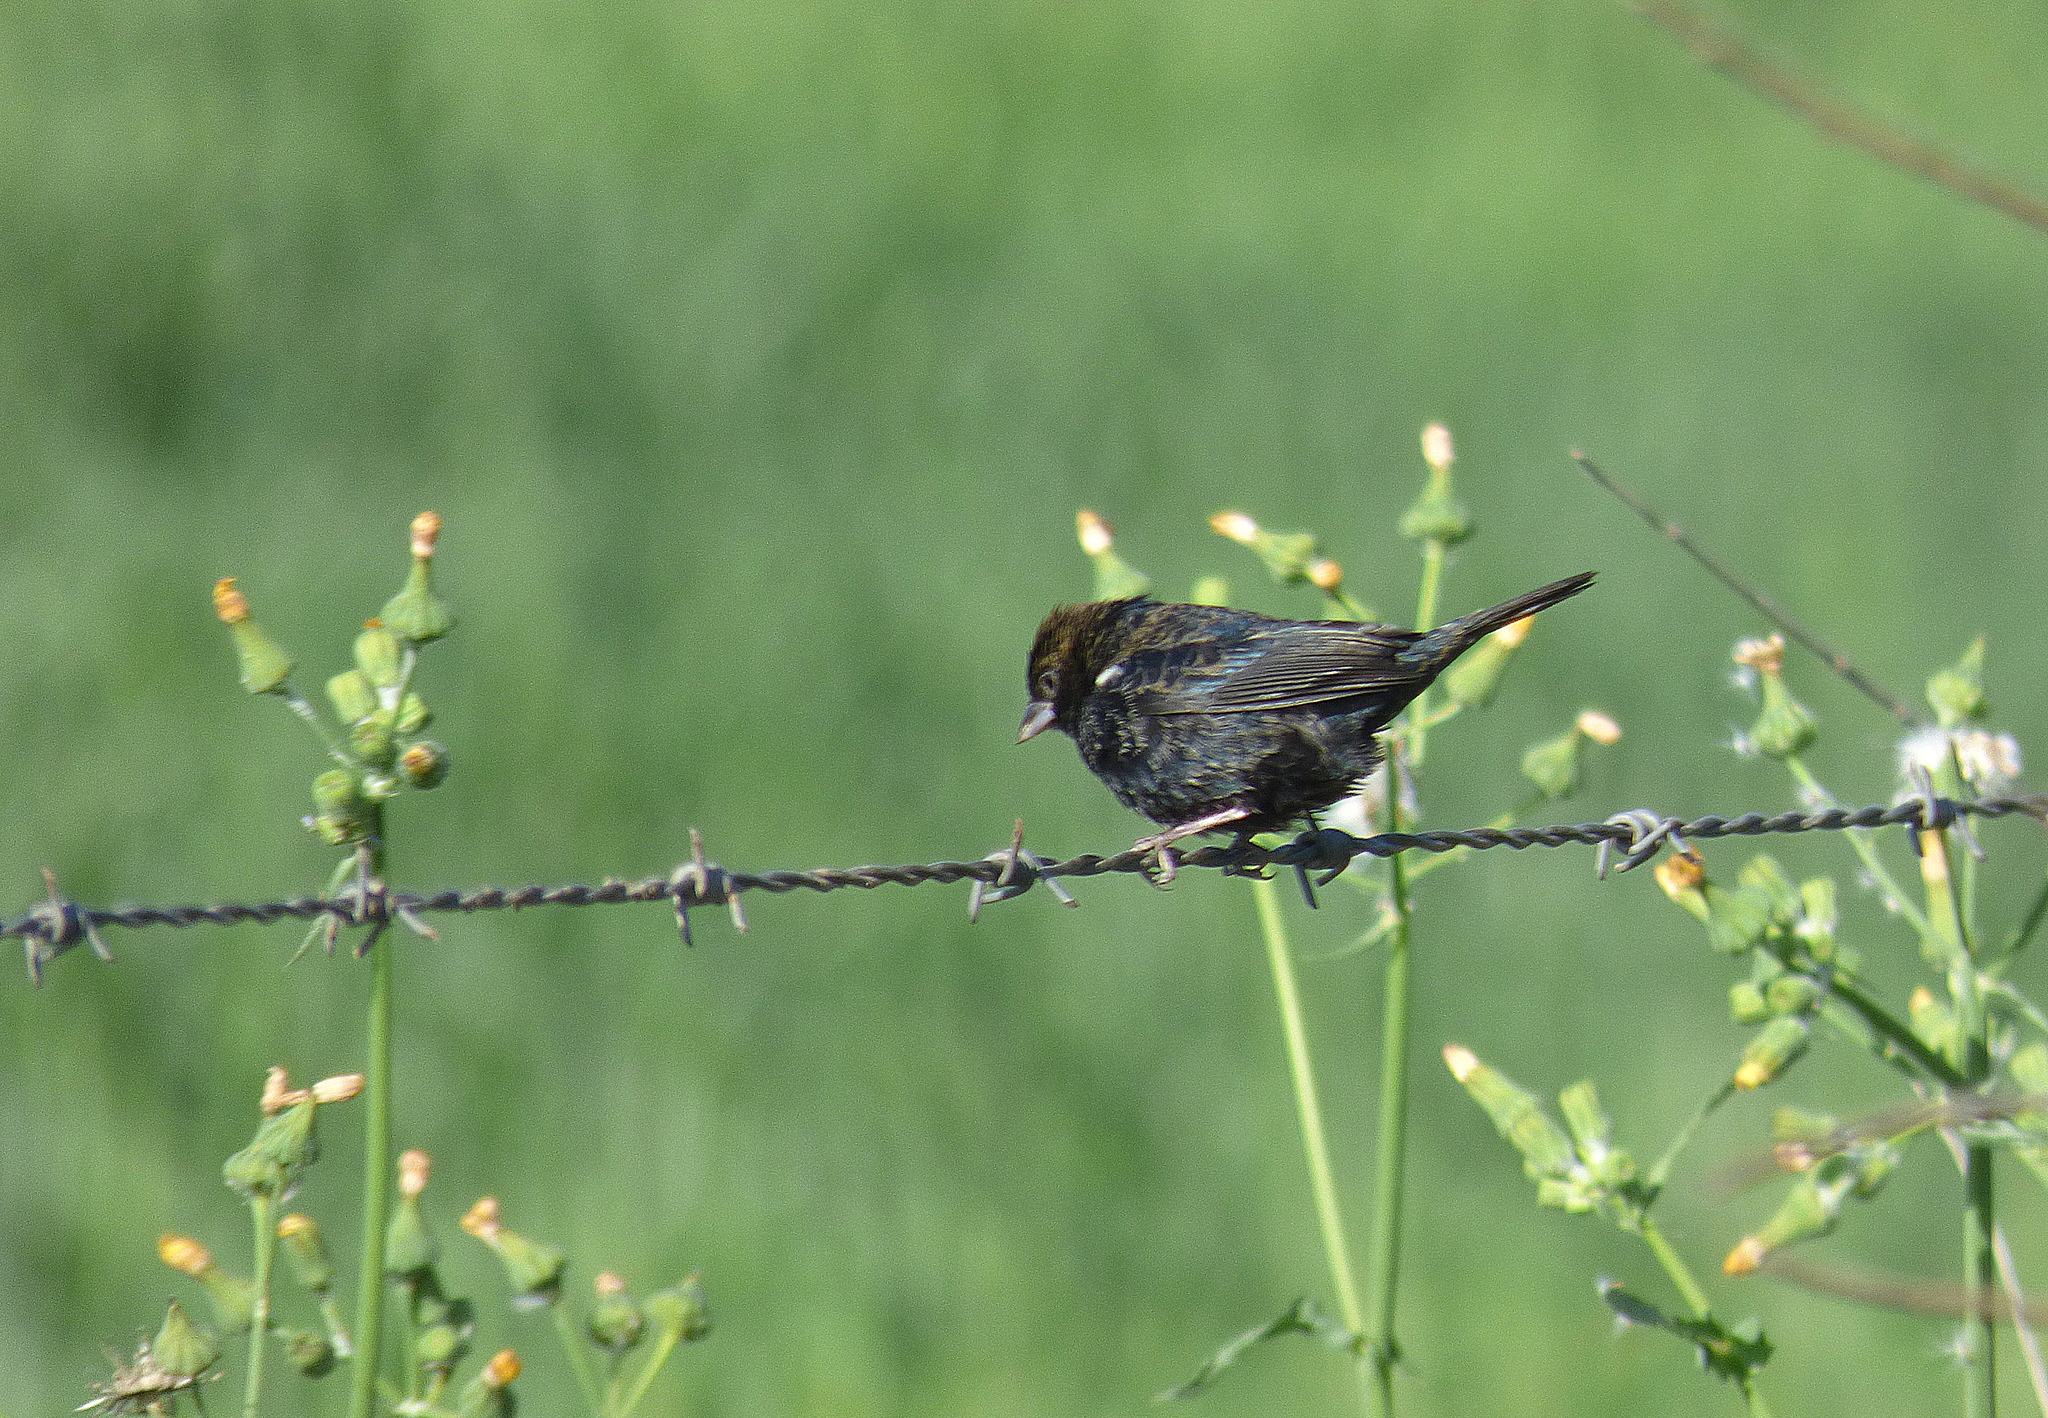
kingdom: Animalia
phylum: Chordata
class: Aves
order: Passeriformes
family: Thraupidae
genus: Volatinia
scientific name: Volatinia jacarina
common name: Blue-black grassquit
